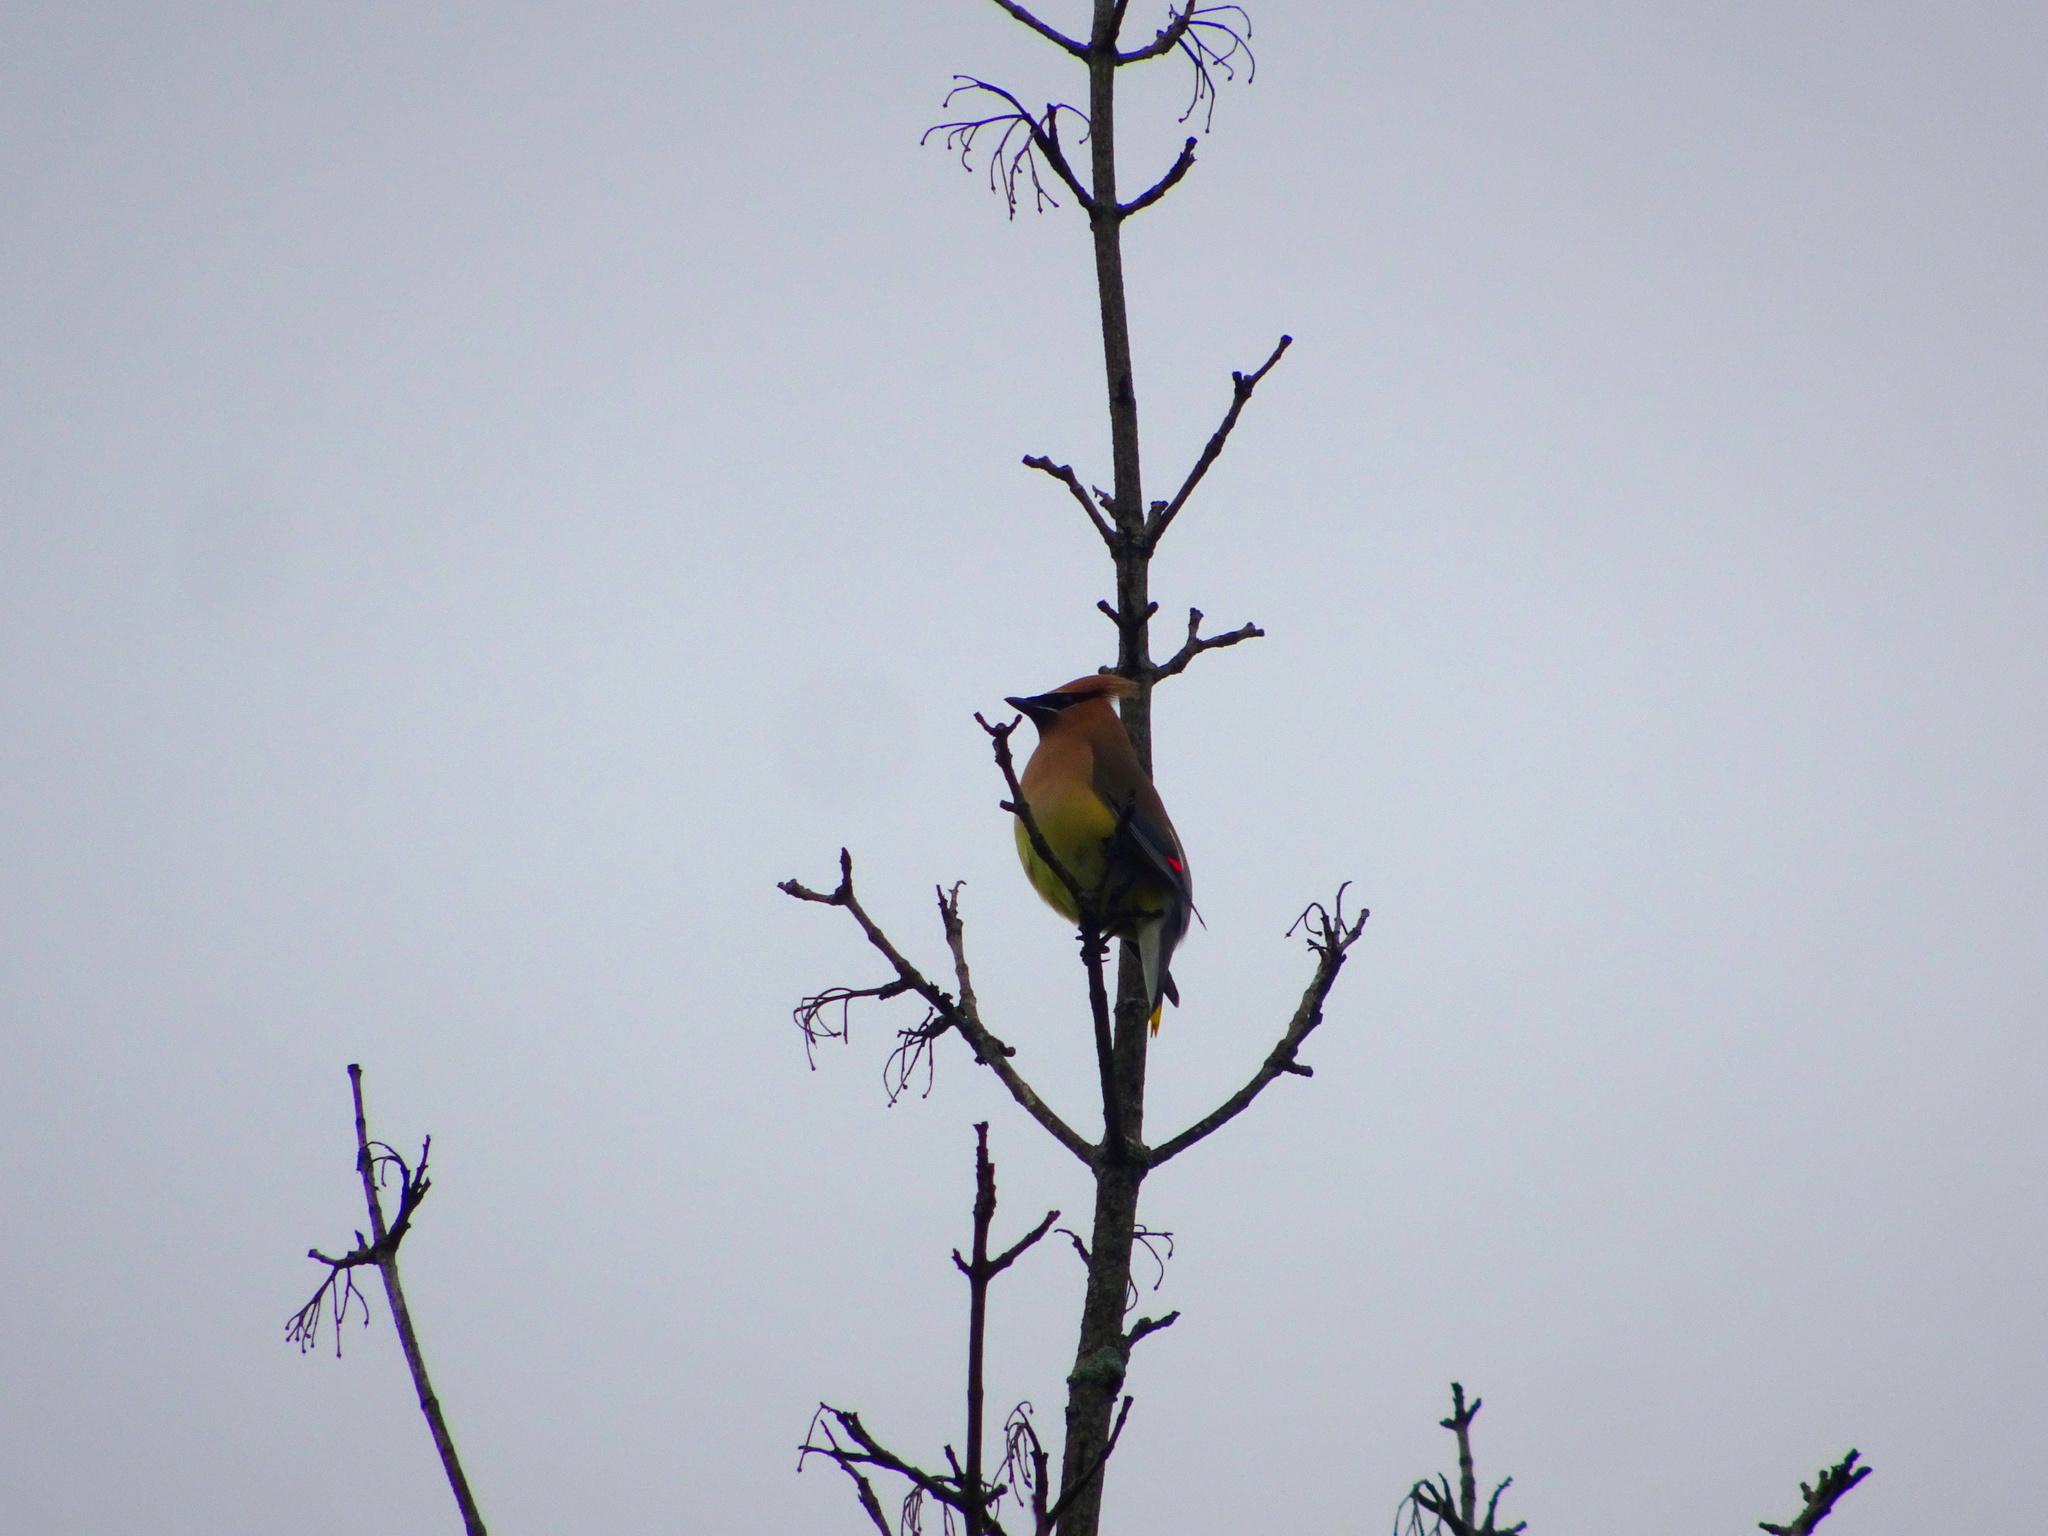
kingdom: Animalia
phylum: Chordata
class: Aves
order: Passeriformes
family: Bombycillidae
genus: Bombycilla
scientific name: Bombycilla cedrorum
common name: Cedar waxwing
